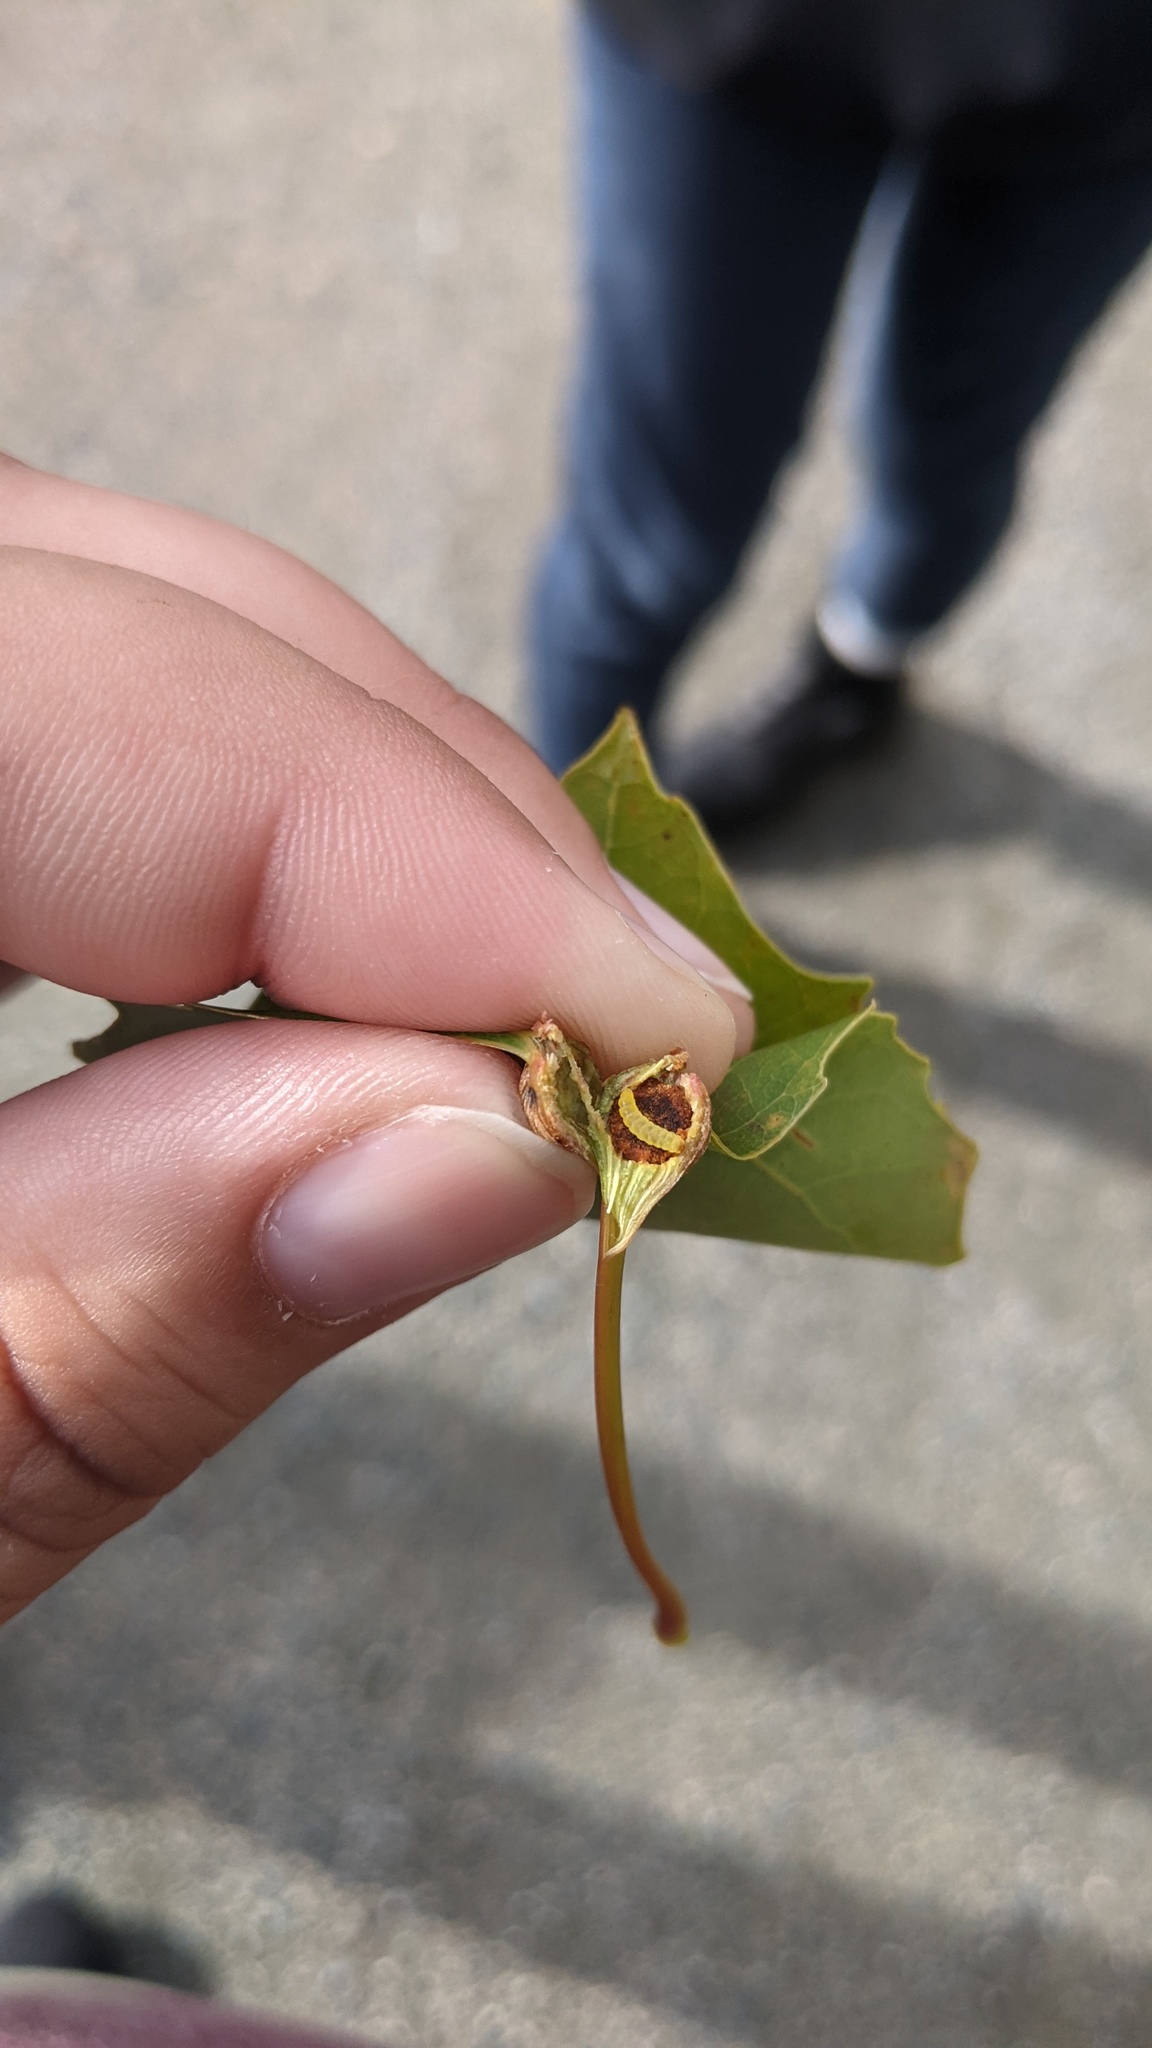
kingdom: Animalia
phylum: Arthropoda
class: Insecta
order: Lepidoptera
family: Nepticulidae
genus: Ectoedemia
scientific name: Ectoedemia populella
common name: Aspen petiole gall moth
